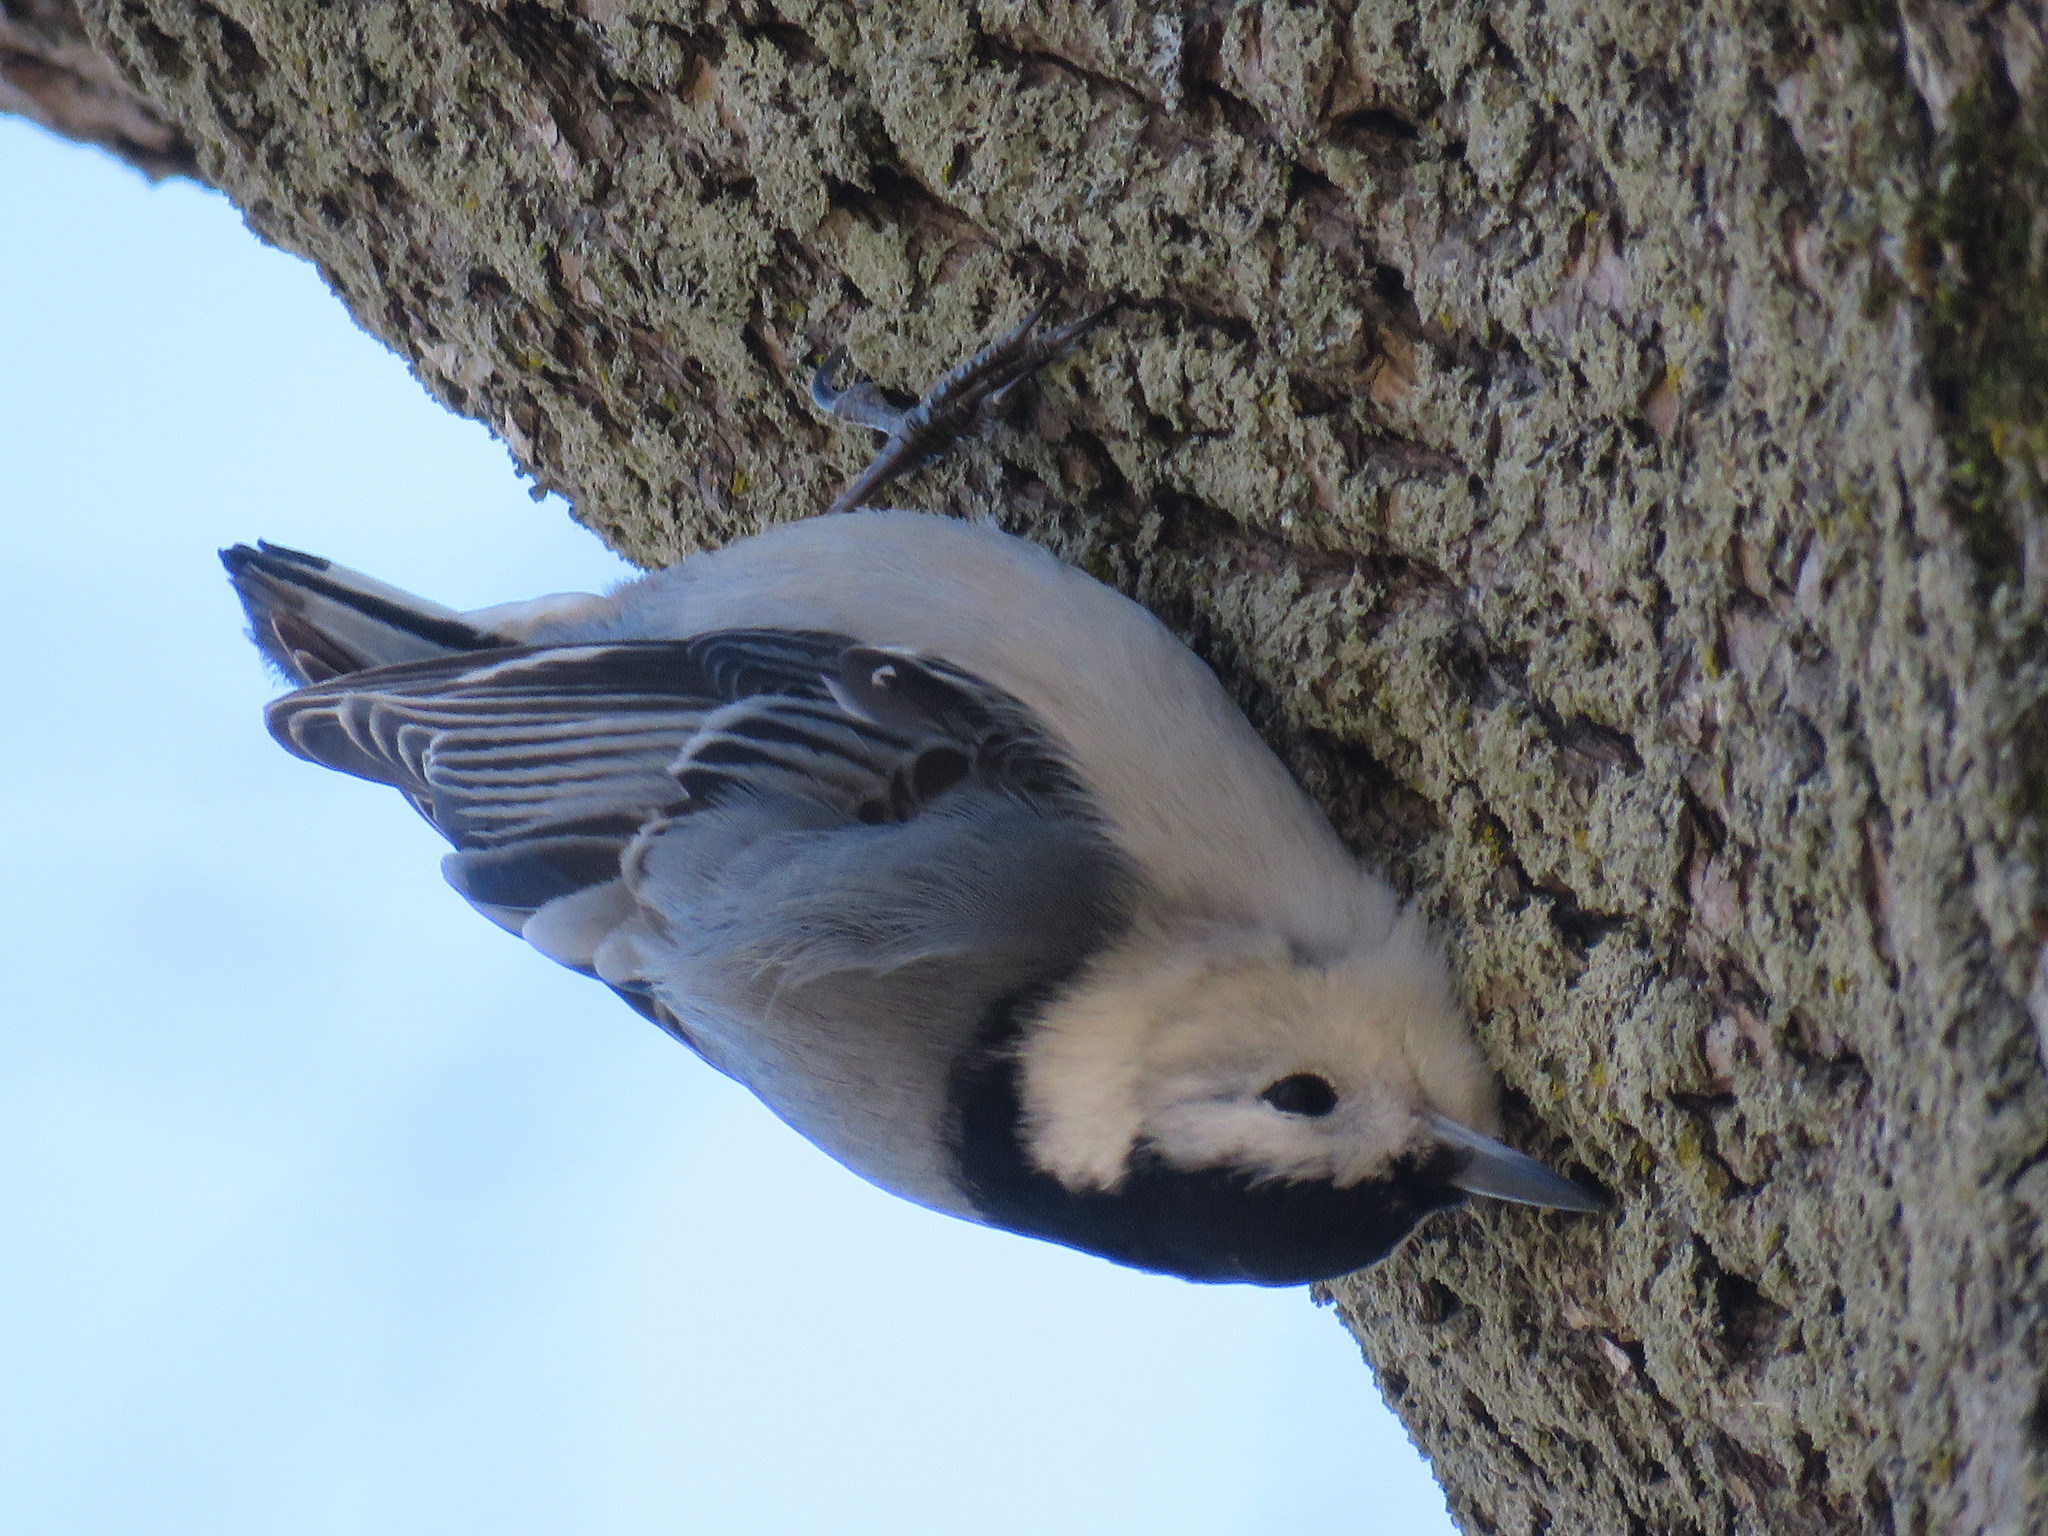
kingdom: Animalia
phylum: Chordata
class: Aves
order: Passeriformes
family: Sittidae
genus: Sitta
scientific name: Sitta carolinensis
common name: White-breasted nuthatch
